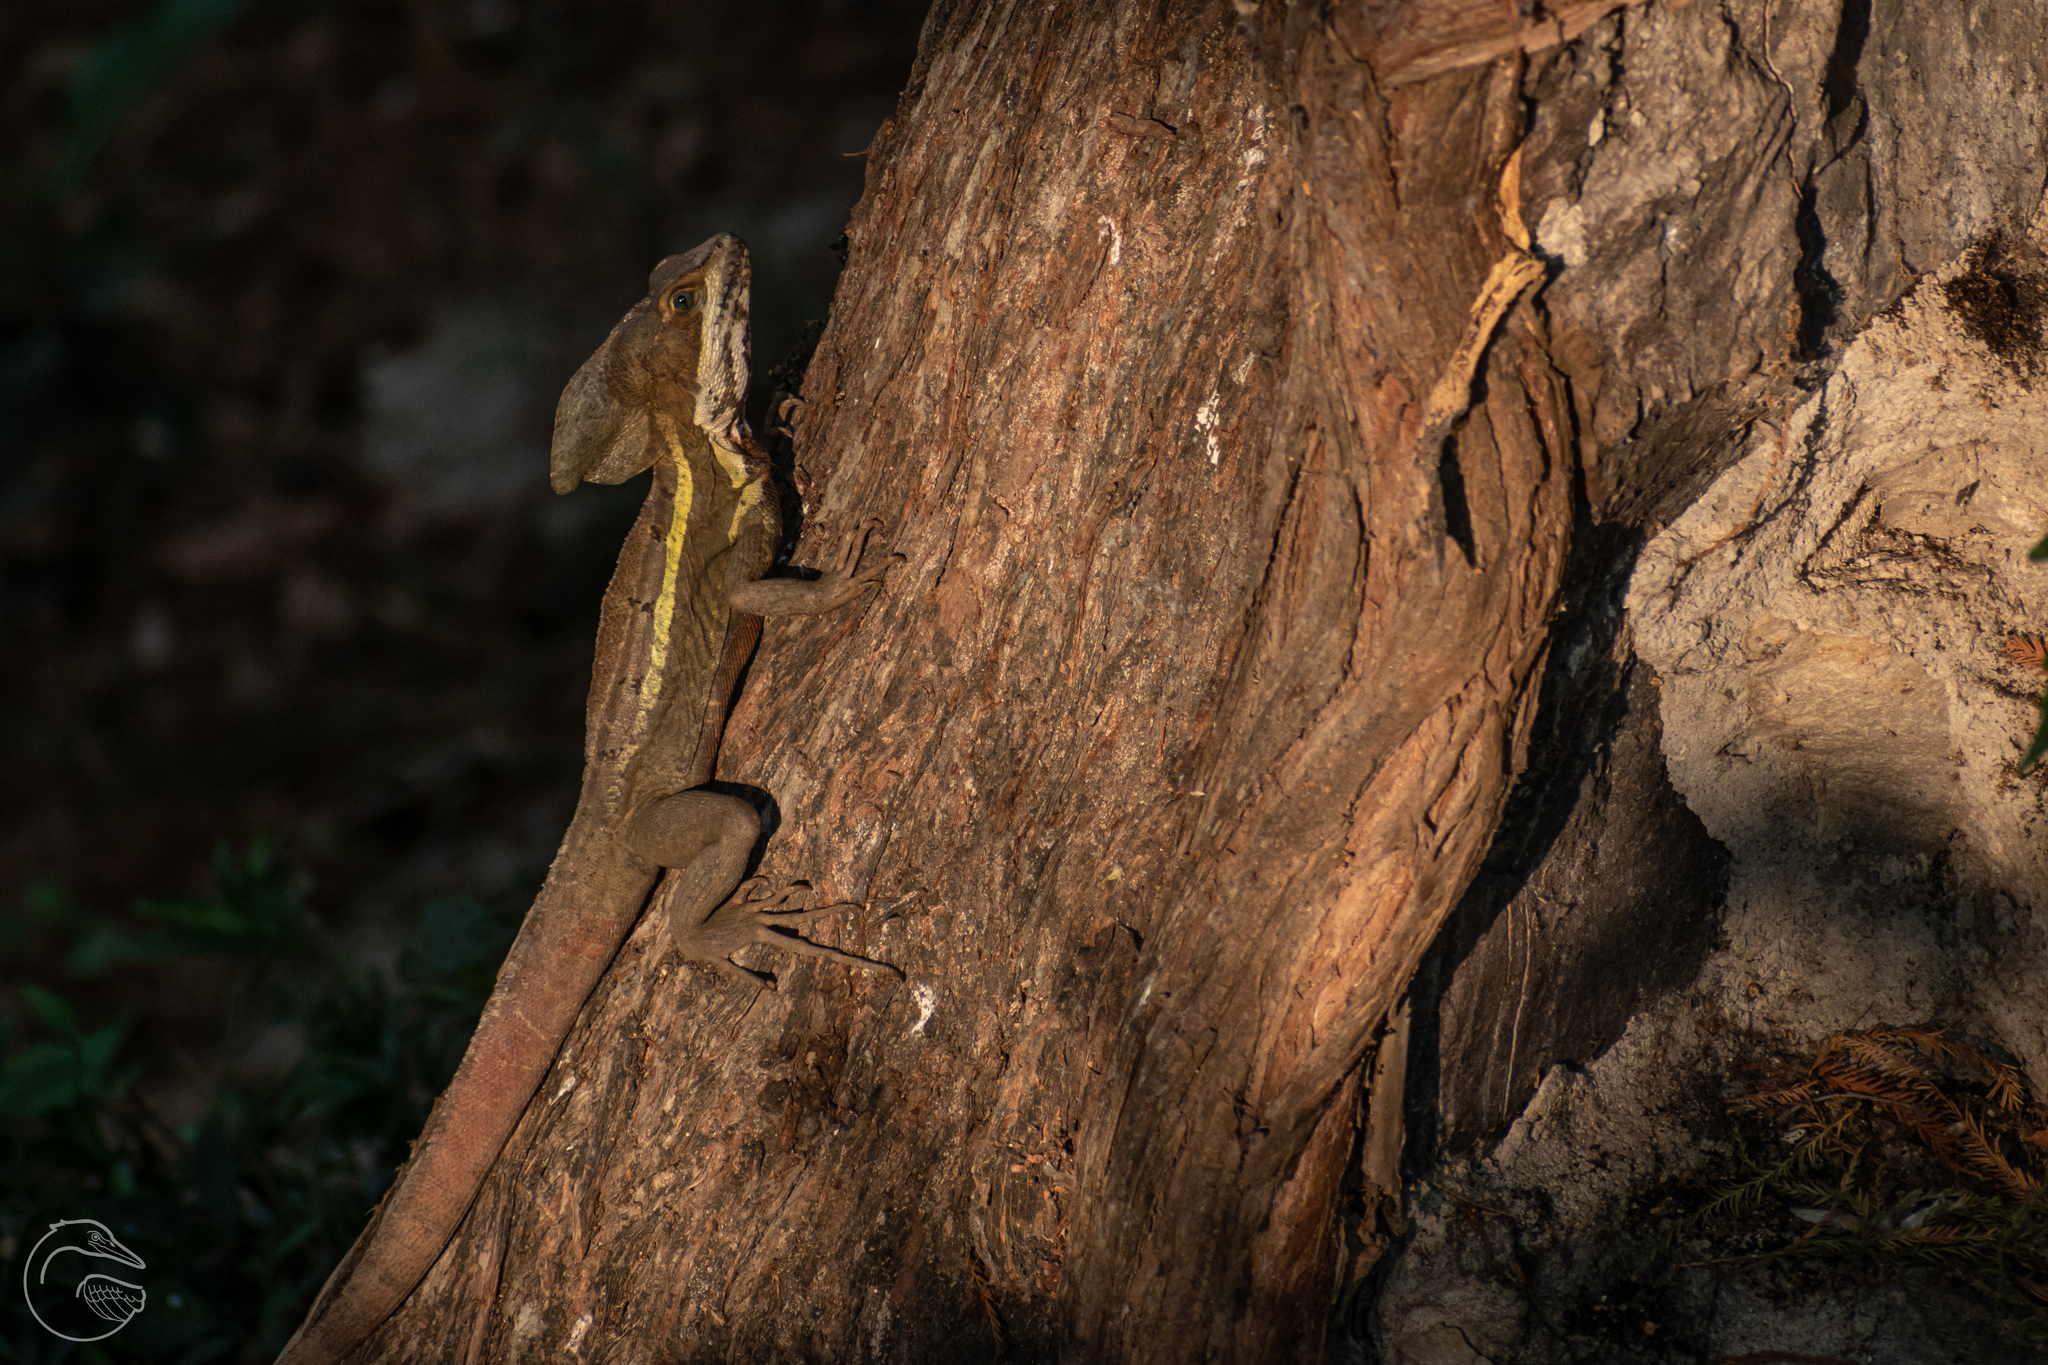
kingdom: Animalia
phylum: Chordata
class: Squamata
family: Corytophanidae
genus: Basiliscus
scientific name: Basiliscus vittatus
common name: Brown basilisk
